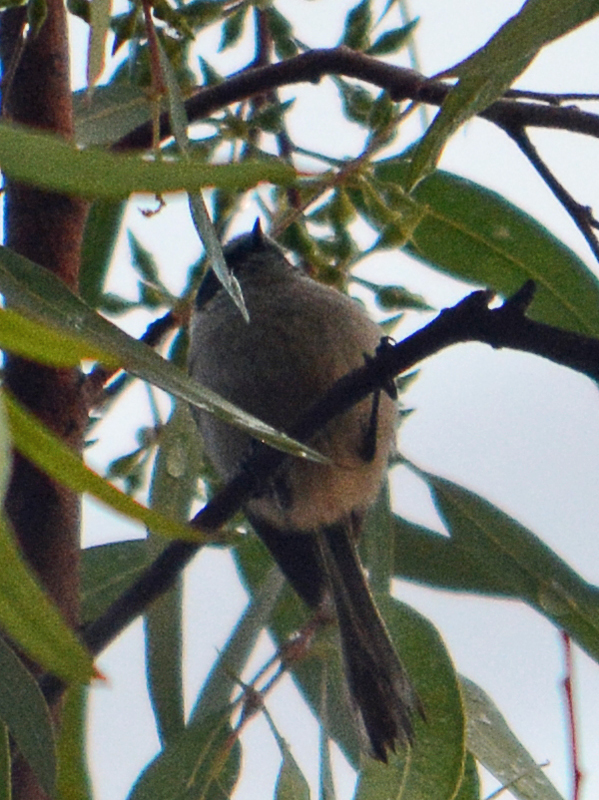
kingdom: Animalia
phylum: Chordata
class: Aves
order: Passeriformes
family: Aegithalidae
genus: Psaltriparus
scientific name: Psaltriparus minimus
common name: American bushtit
